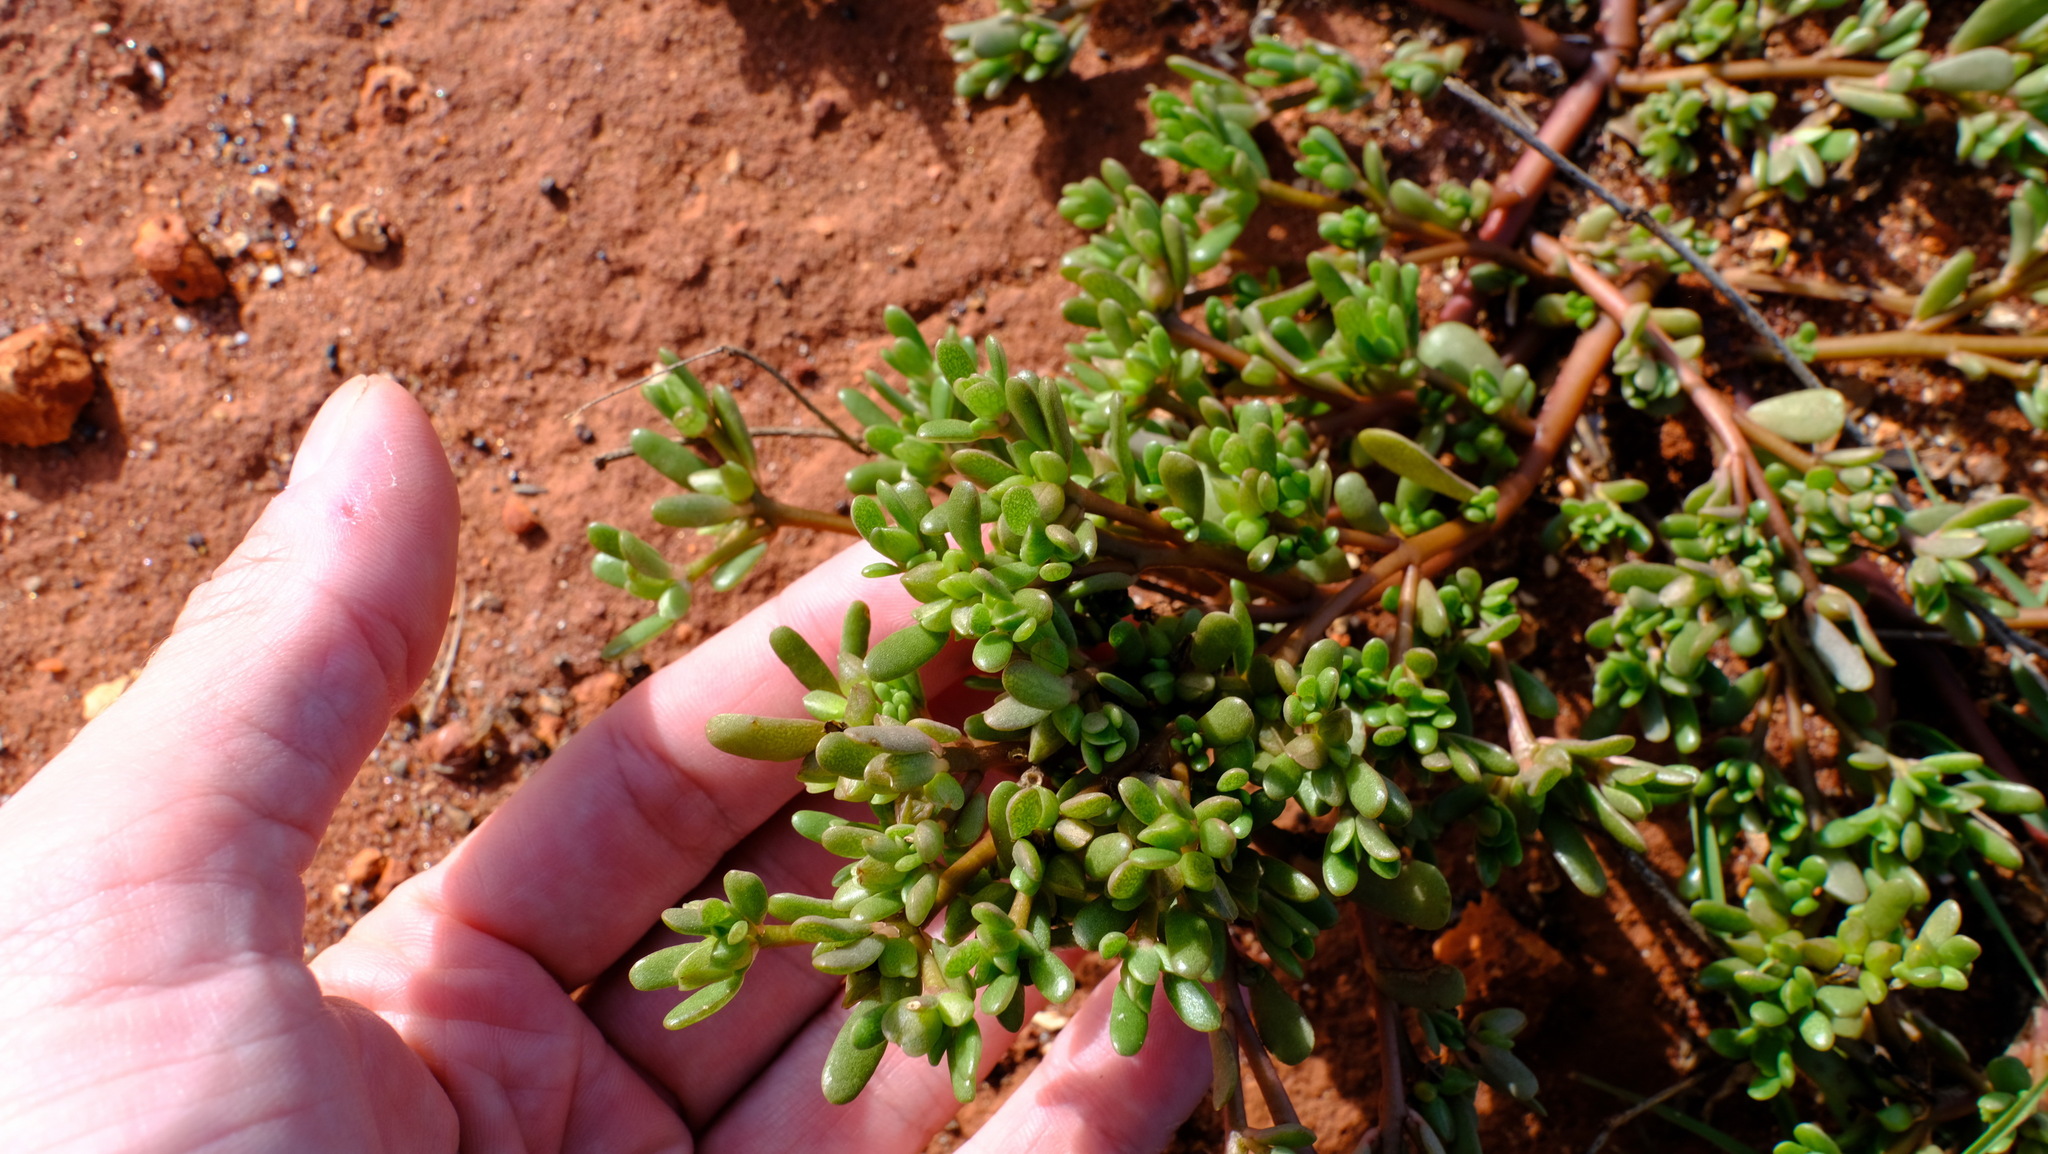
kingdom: Plantae
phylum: Tracheophyta
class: Magnoliopsida
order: Caryophyllales
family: Portulacaceae
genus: Portulaca
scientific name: Portulaca oleracea
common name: Common purslane
